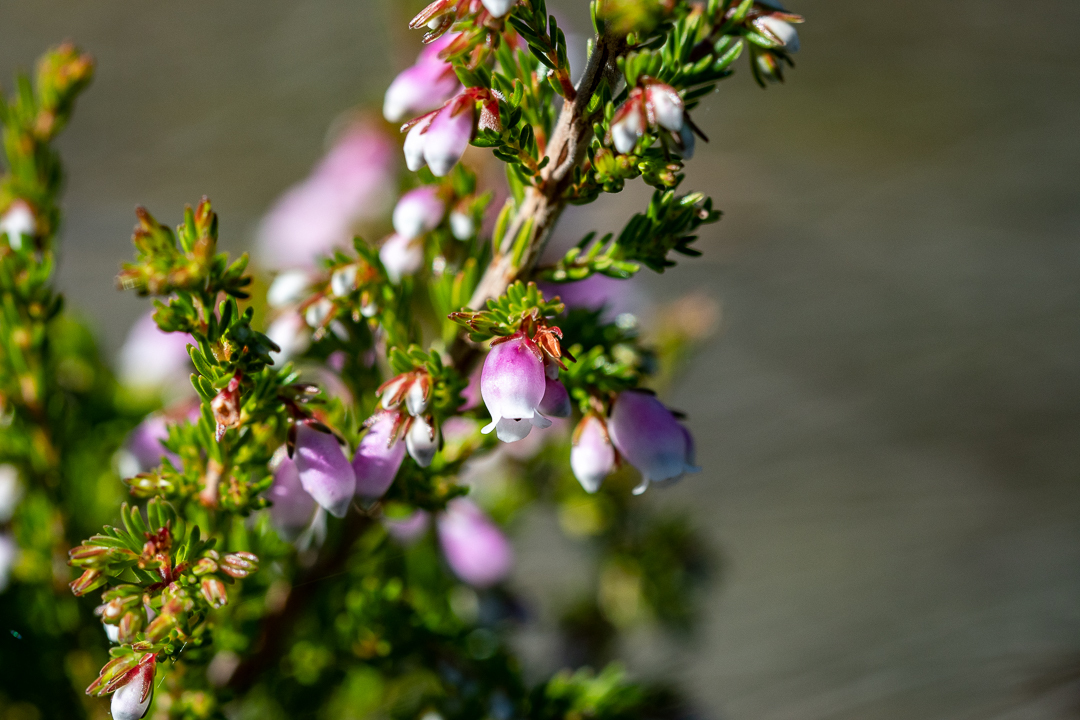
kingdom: Plantae
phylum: Tracheophyta
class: Magnoliopsida
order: Ericales
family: Ericaceae
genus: Erica
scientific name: Erica sitiens
